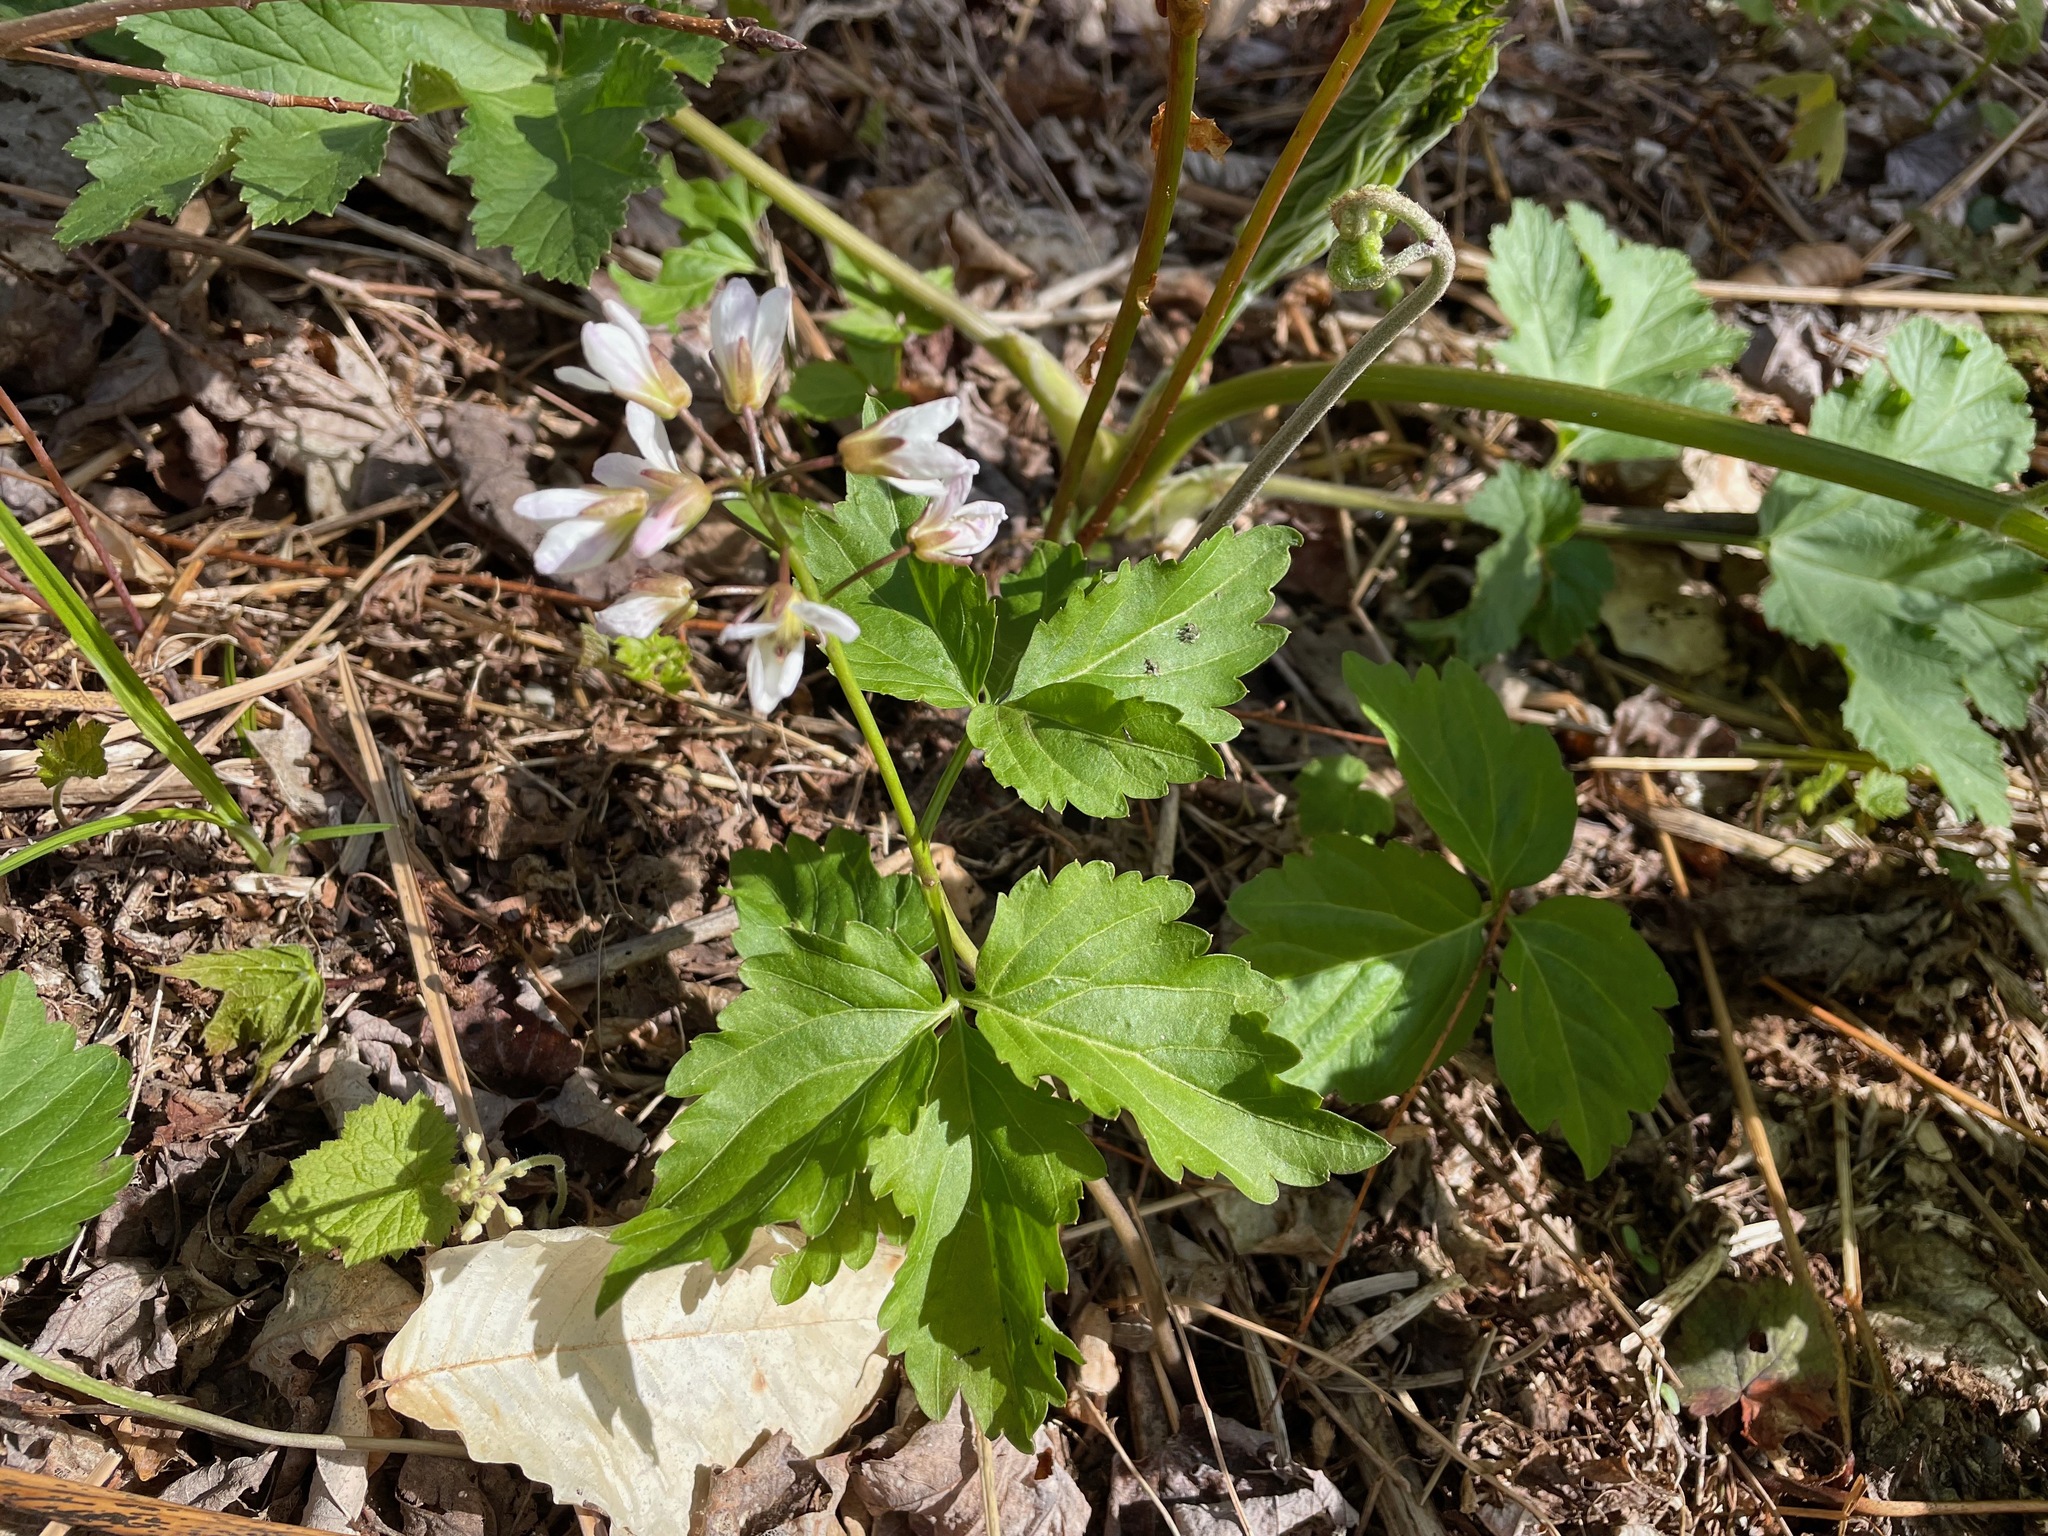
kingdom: Plantae
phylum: Tracheophyta
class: Magnoliopsida
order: Brassicales
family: Brassicaceae
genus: Cardamine
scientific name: Cardamine diphylla
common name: Broad-leaved toothwort
